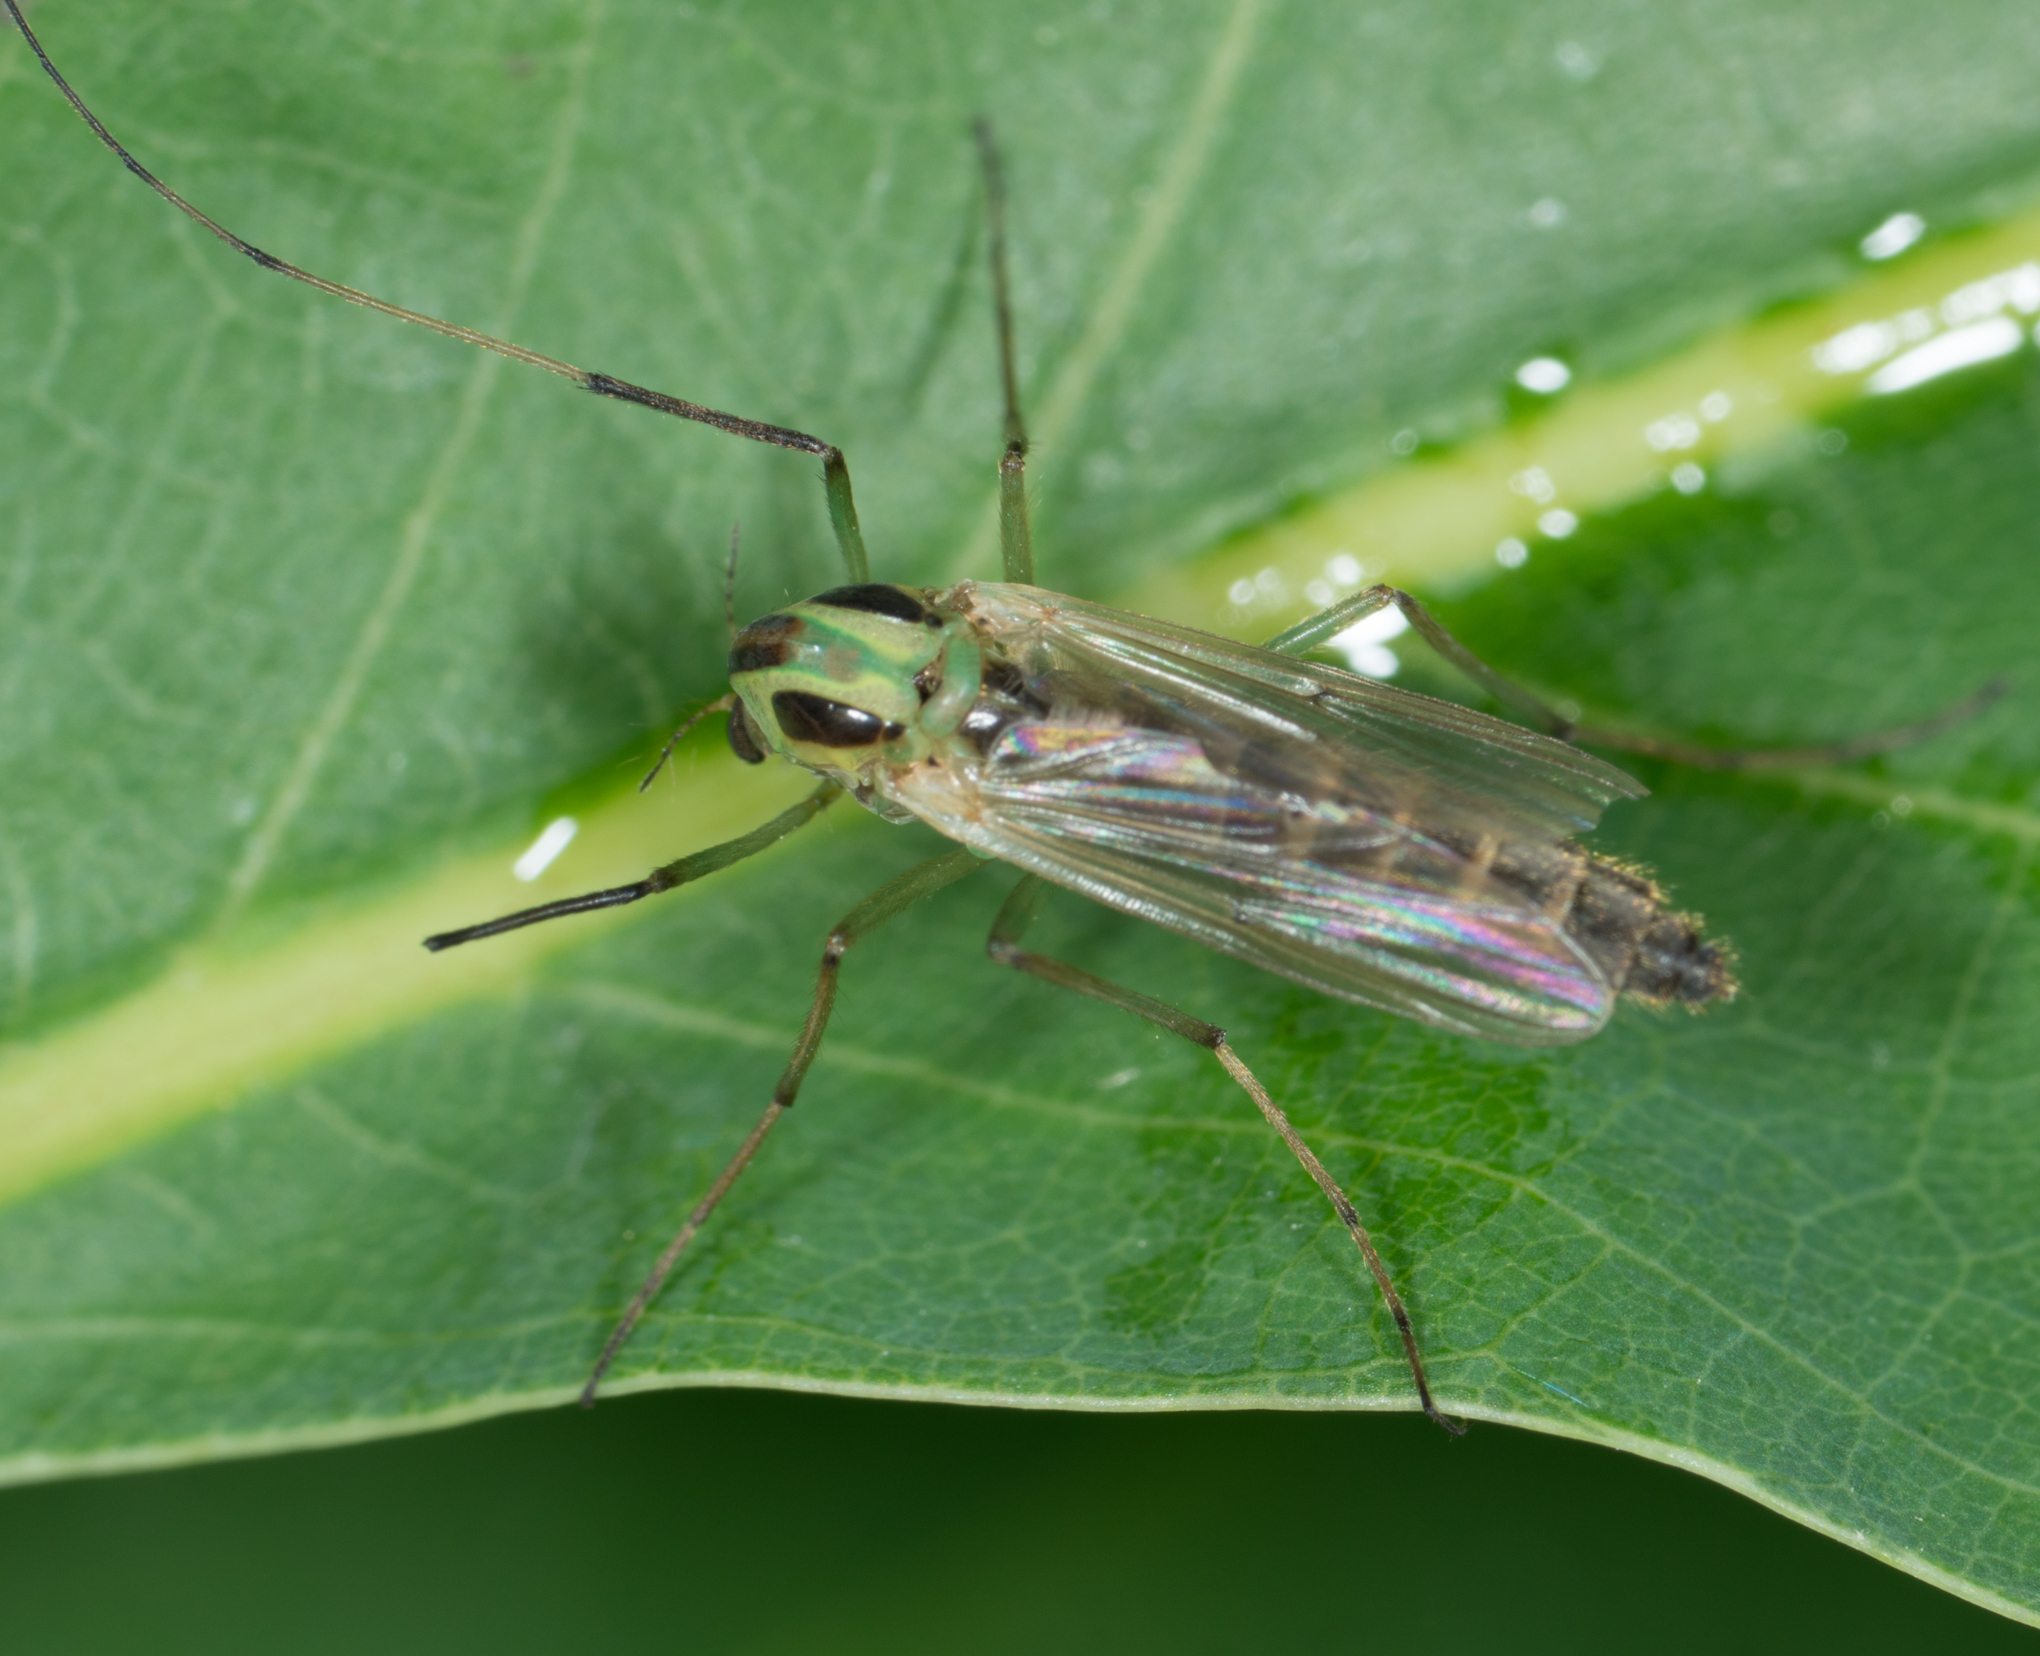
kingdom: Animalia
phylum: Arthropoda
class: Insecta
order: Diptera
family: Chironomidae
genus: Chironomus
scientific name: Chironomus atroviridis
